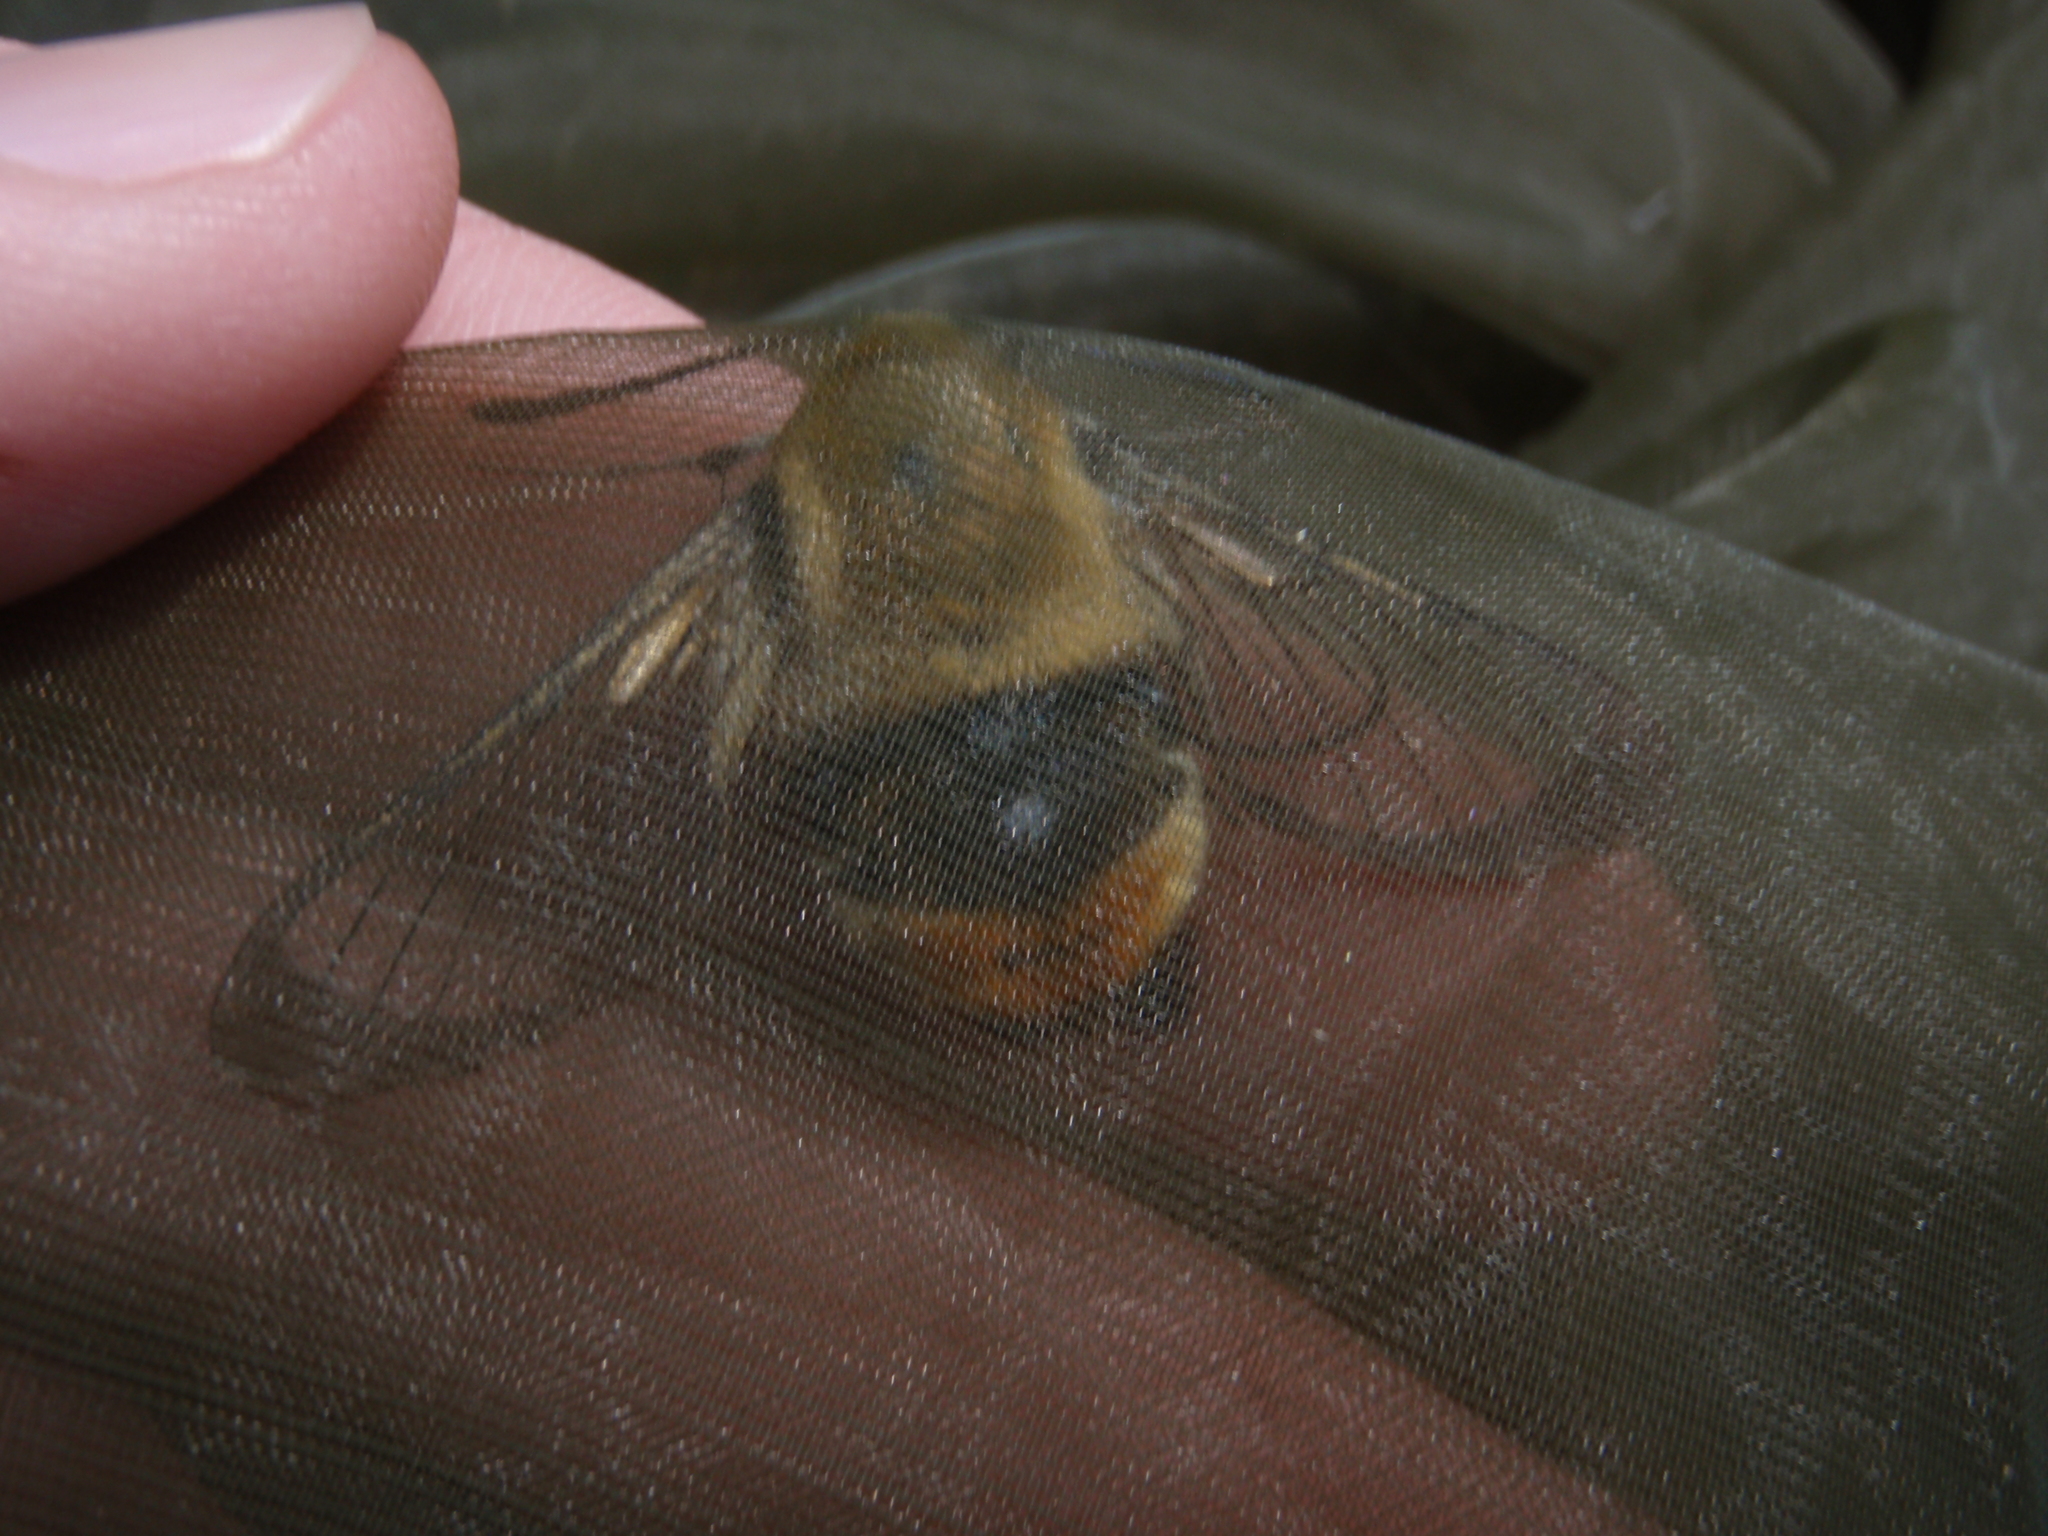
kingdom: Animalia
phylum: Arthropoda
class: Insecta
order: Lepidoptera
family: Sphingidae
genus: Hemaris
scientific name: Hemaris tityus
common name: Narrow-bordered bee hawk-moth
